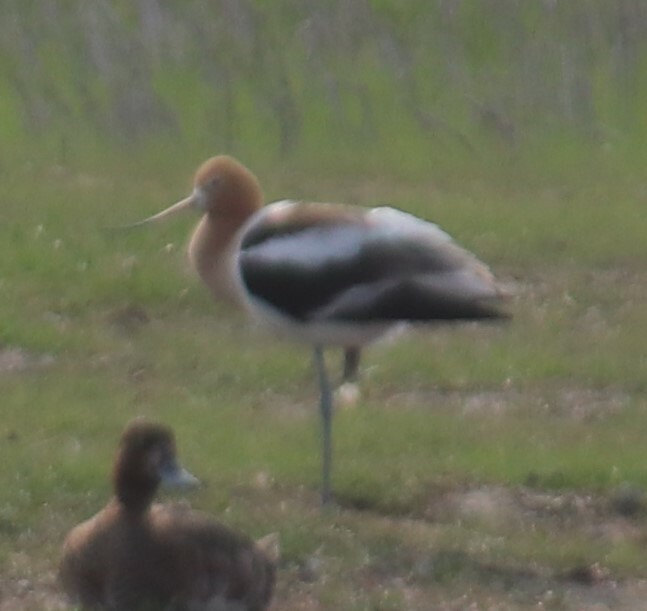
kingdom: Animalia
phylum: Chordata
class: Aves
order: Charadriiformes
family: Recurvirostridae
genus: Recurvirostra
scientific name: Recurvirostra americana
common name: American avocet
